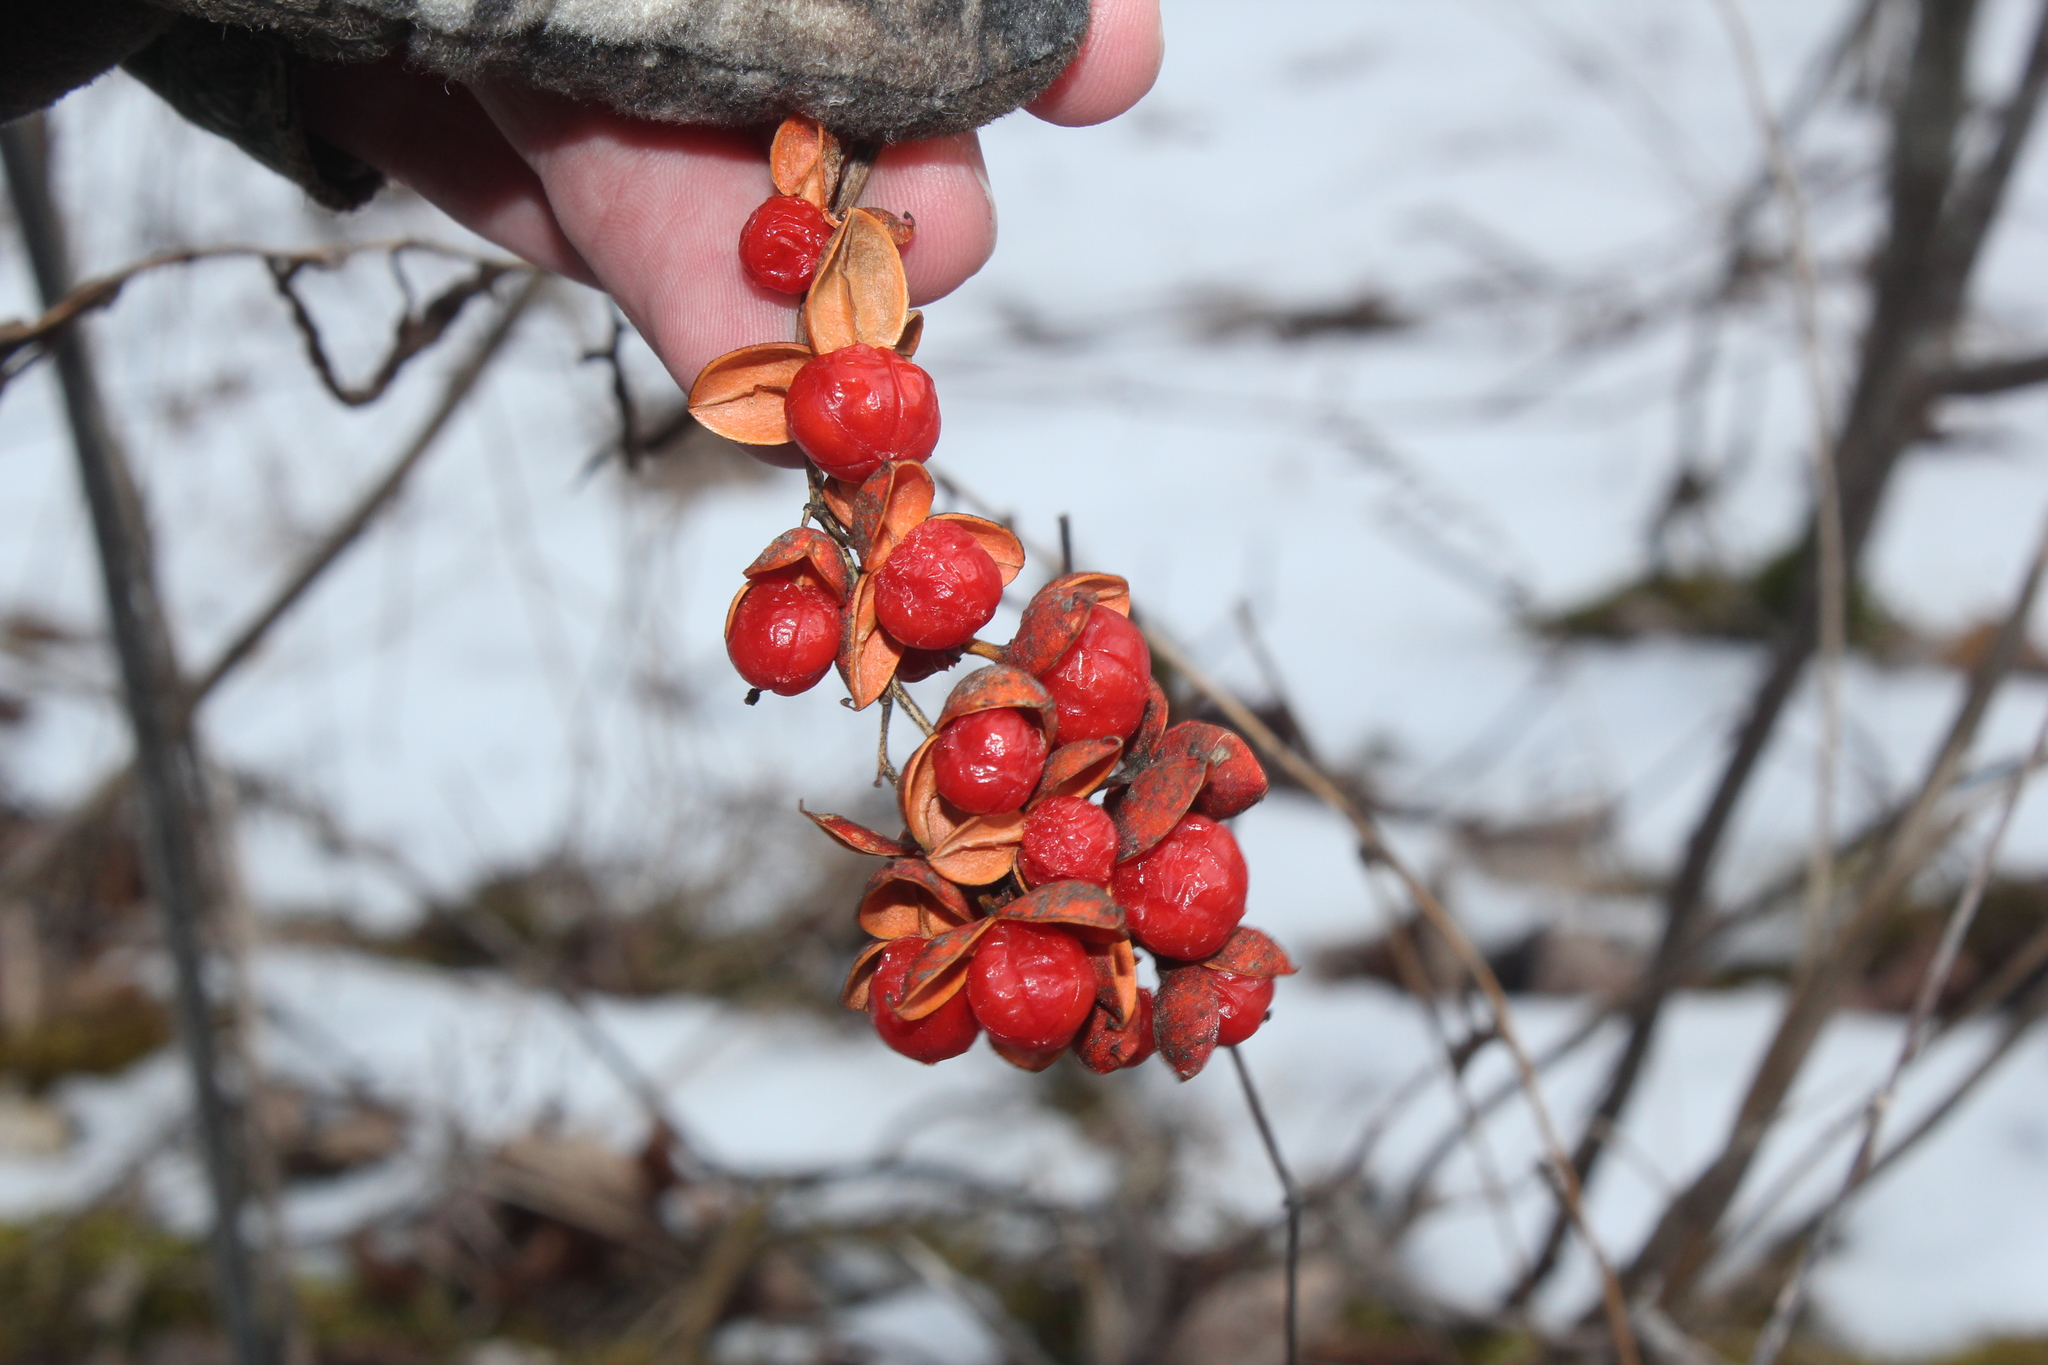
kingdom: Plantae
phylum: Tracheophyta
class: Magnoliopsida
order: Celastrales
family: Celastraceae
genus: Celastrus
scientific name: Celastrus scandens
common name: American bittersweet
